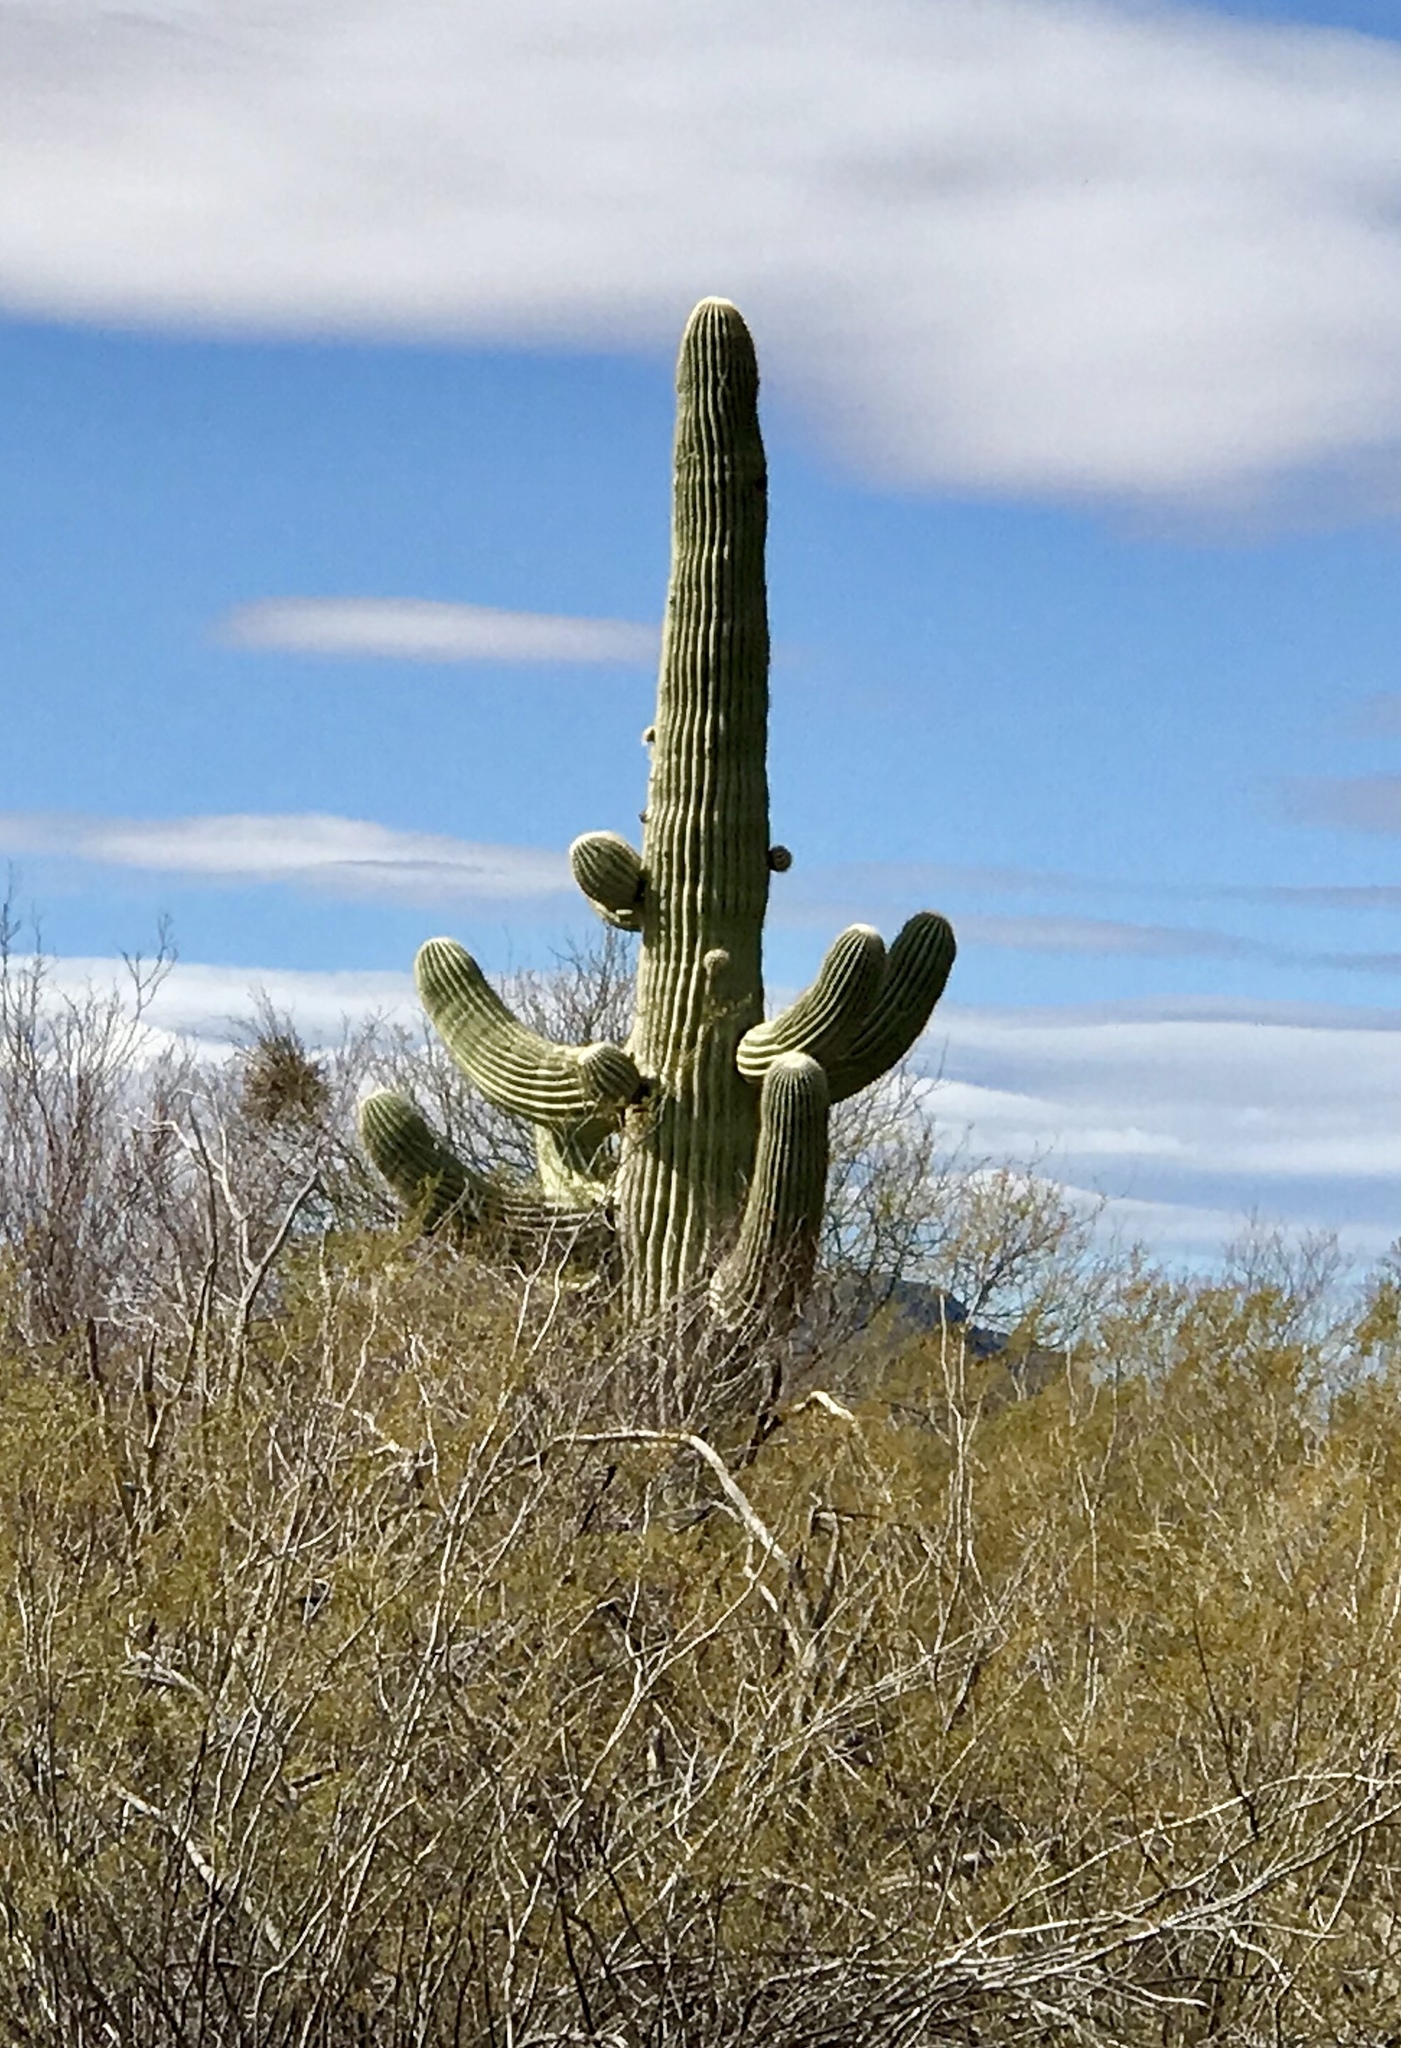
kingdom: Plantae
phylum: Tracheophyta
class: Magnoliopsida
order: Caryophyllales
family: Cactaceae
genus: Carnegiea
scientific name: Carnegiea gigantea
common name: Saguaro
